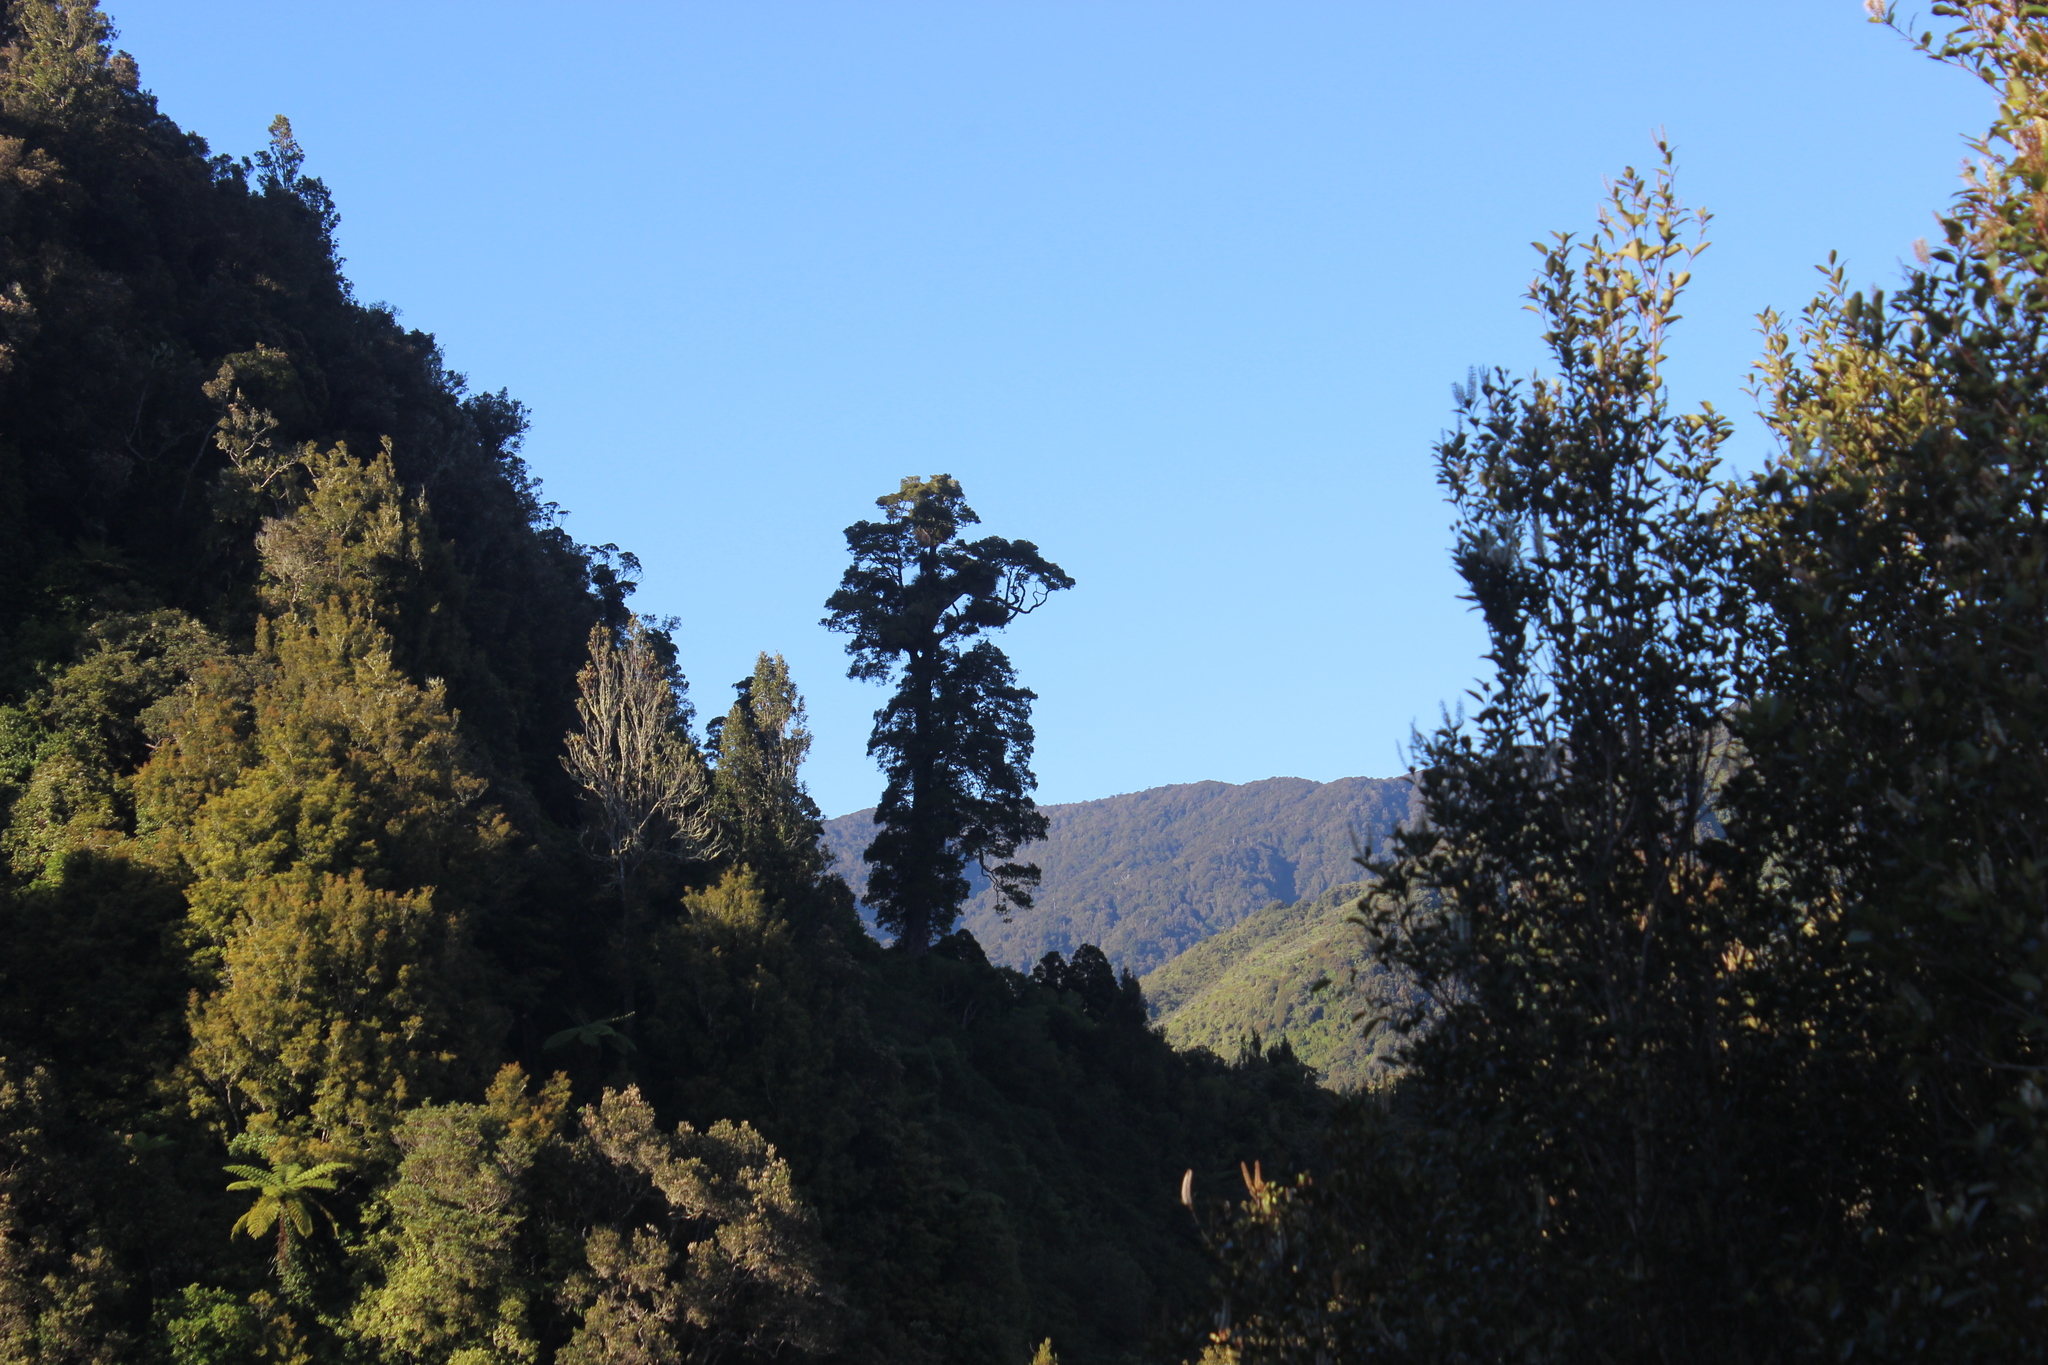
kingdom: Plantae
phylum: Tracheophyta
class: Magnoliopsida
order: Myrtales
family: Myrtaceae
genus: Metrosideros
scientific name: Metrosideros robusta
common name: Northern rata
